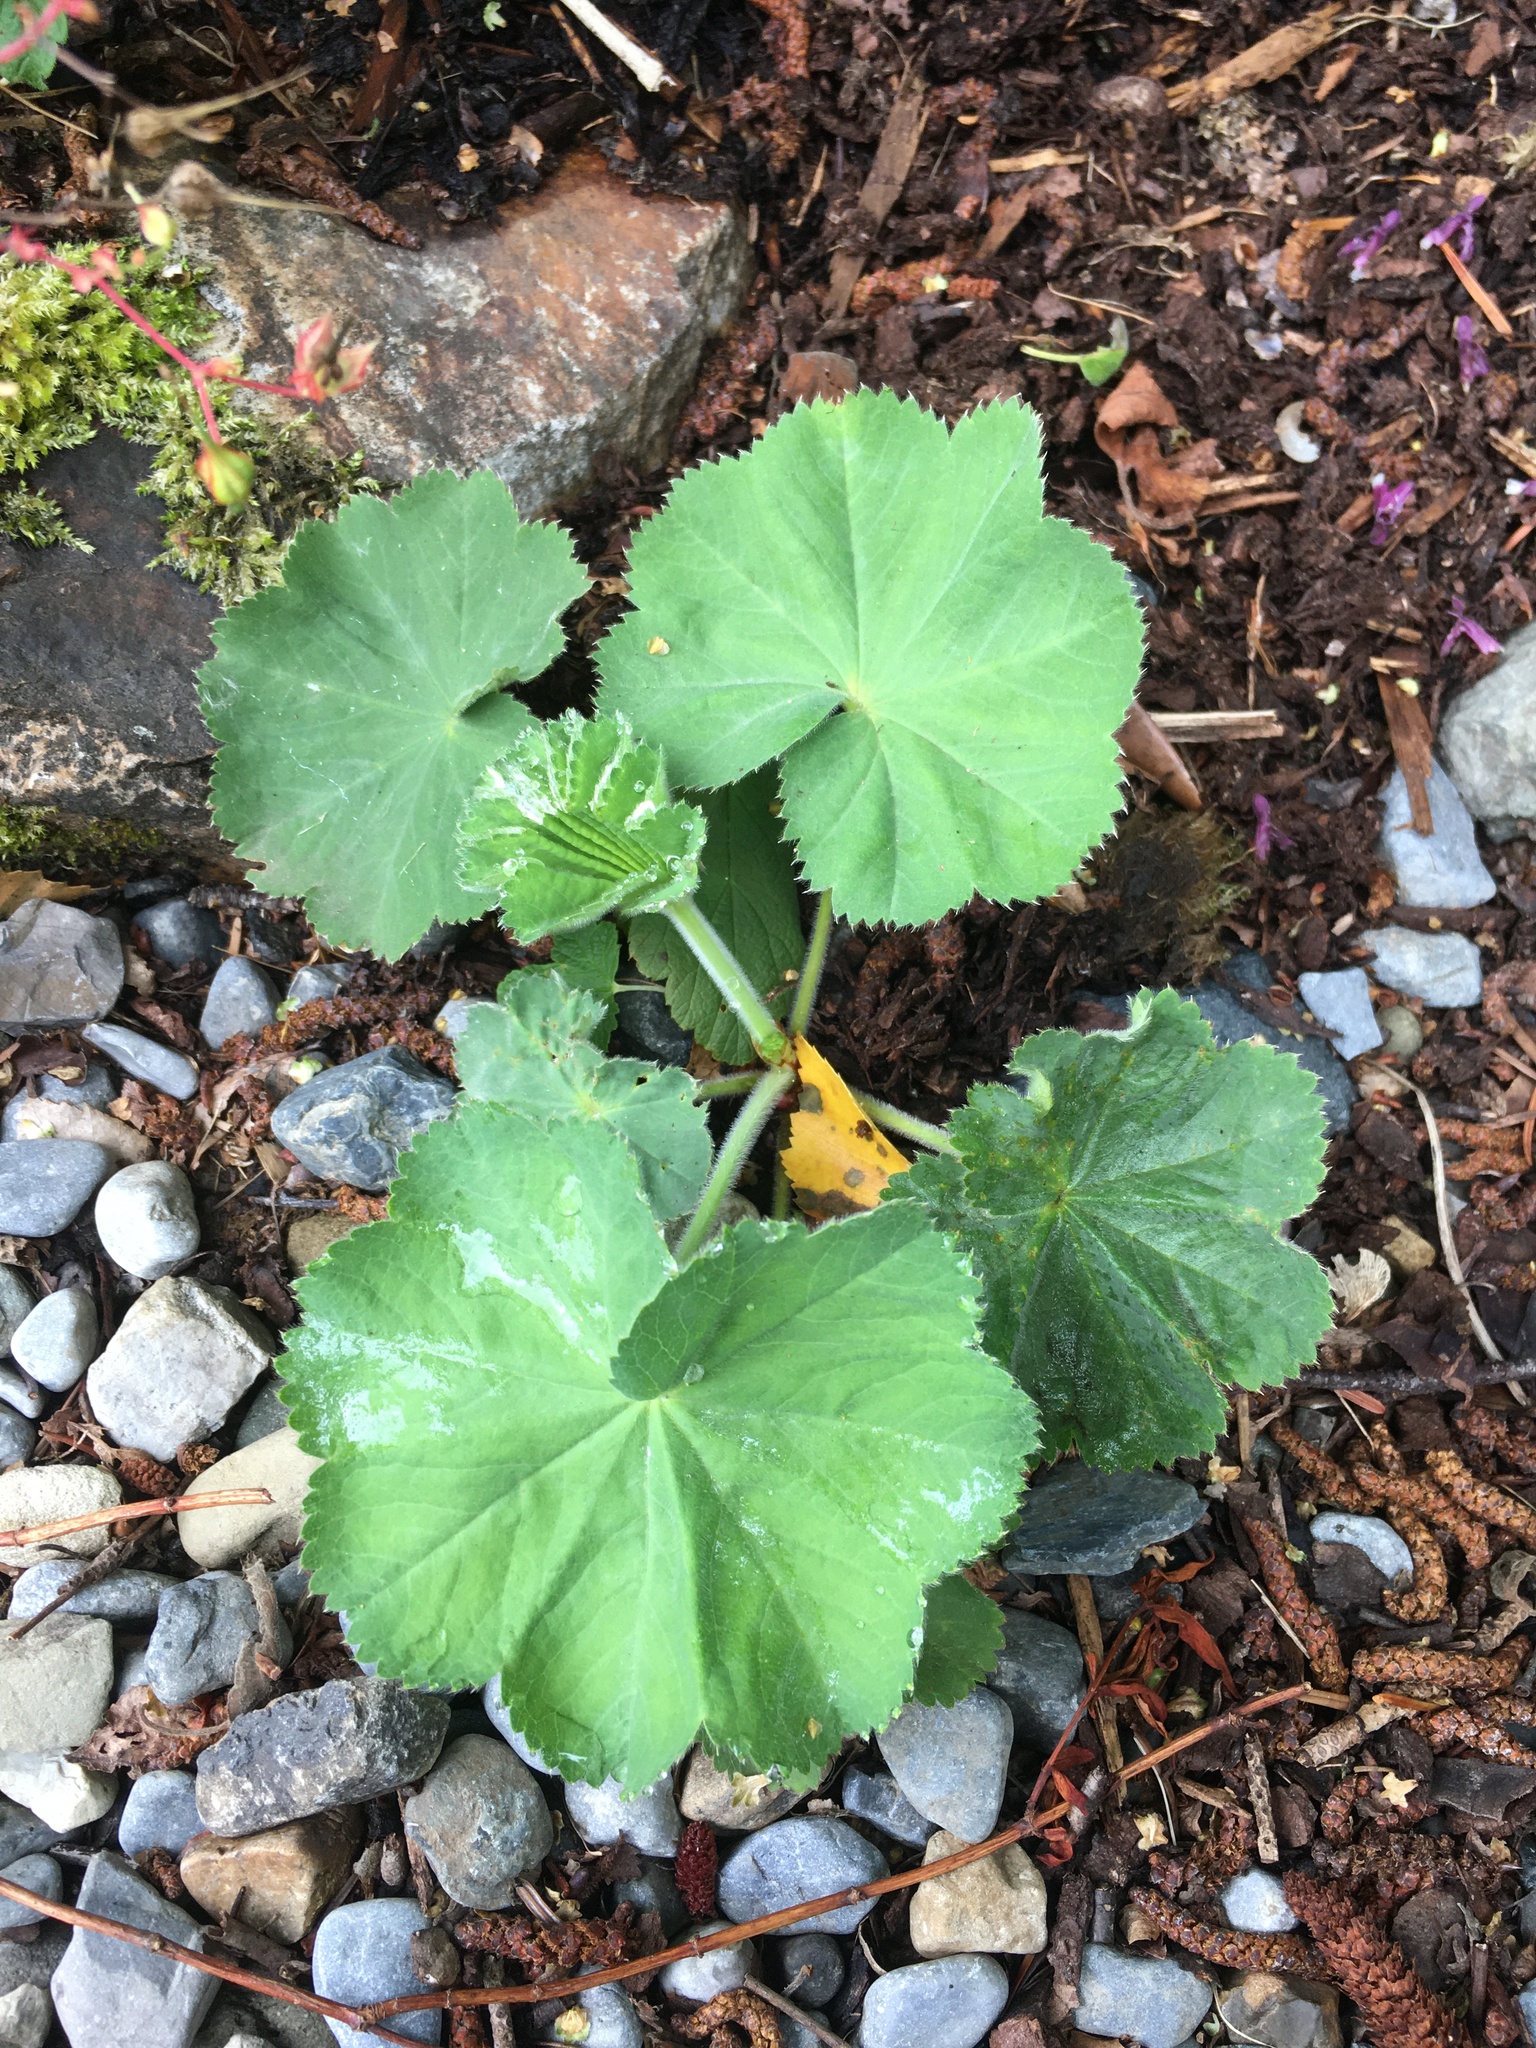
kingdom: Plantae
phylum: Tracheophyta
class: Magnoliopsida
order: Rosales
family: Rosaceae
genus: Alchemilla
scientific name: Alchemilla mollis
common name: Lady's-mantle
